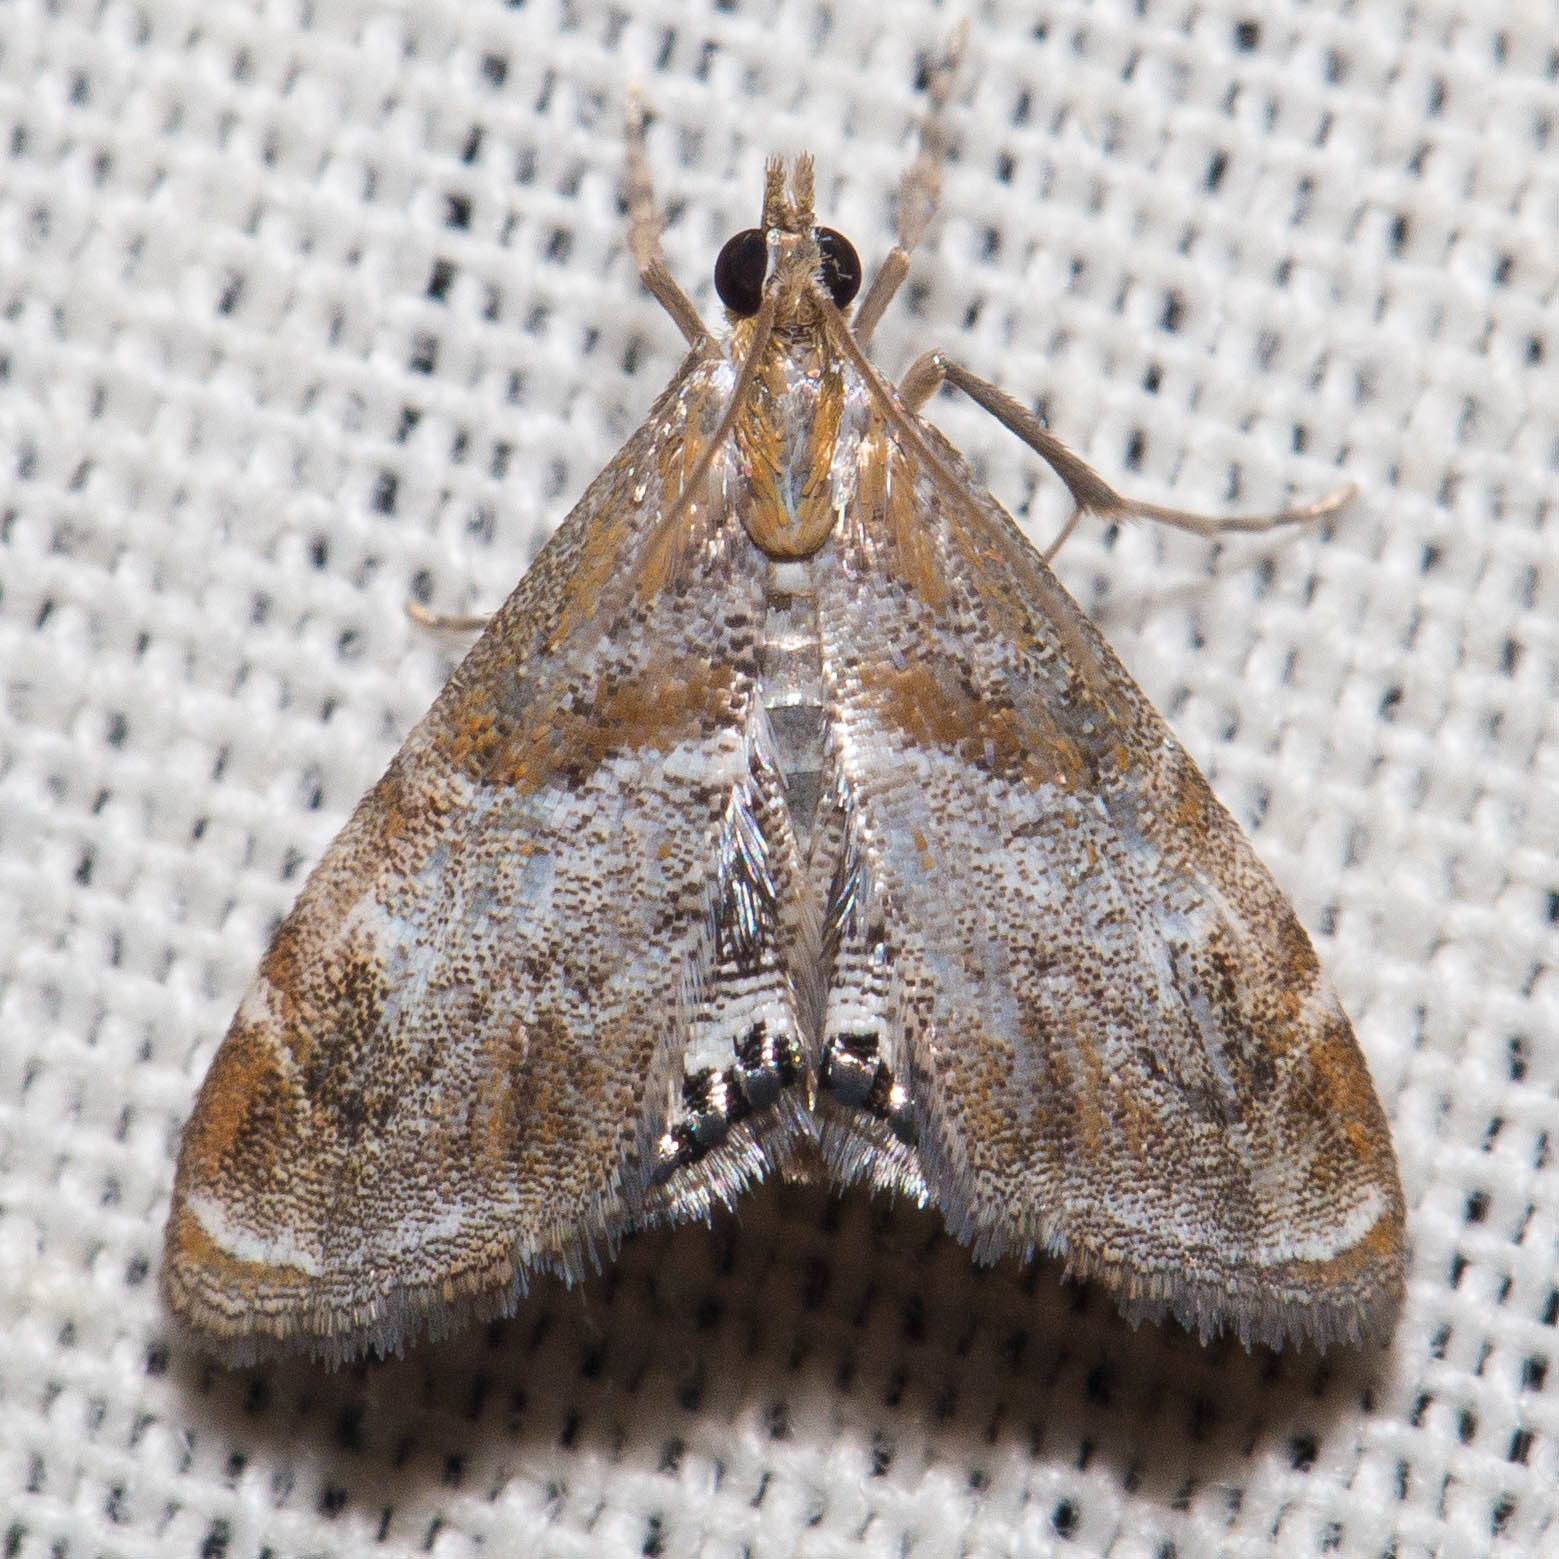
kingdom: Animalia
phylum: Arthropoda
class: Insecta
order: Lepidoptera
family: Crambidae
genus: Dicymolomia
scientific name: Dicymolomia metalliferalis
